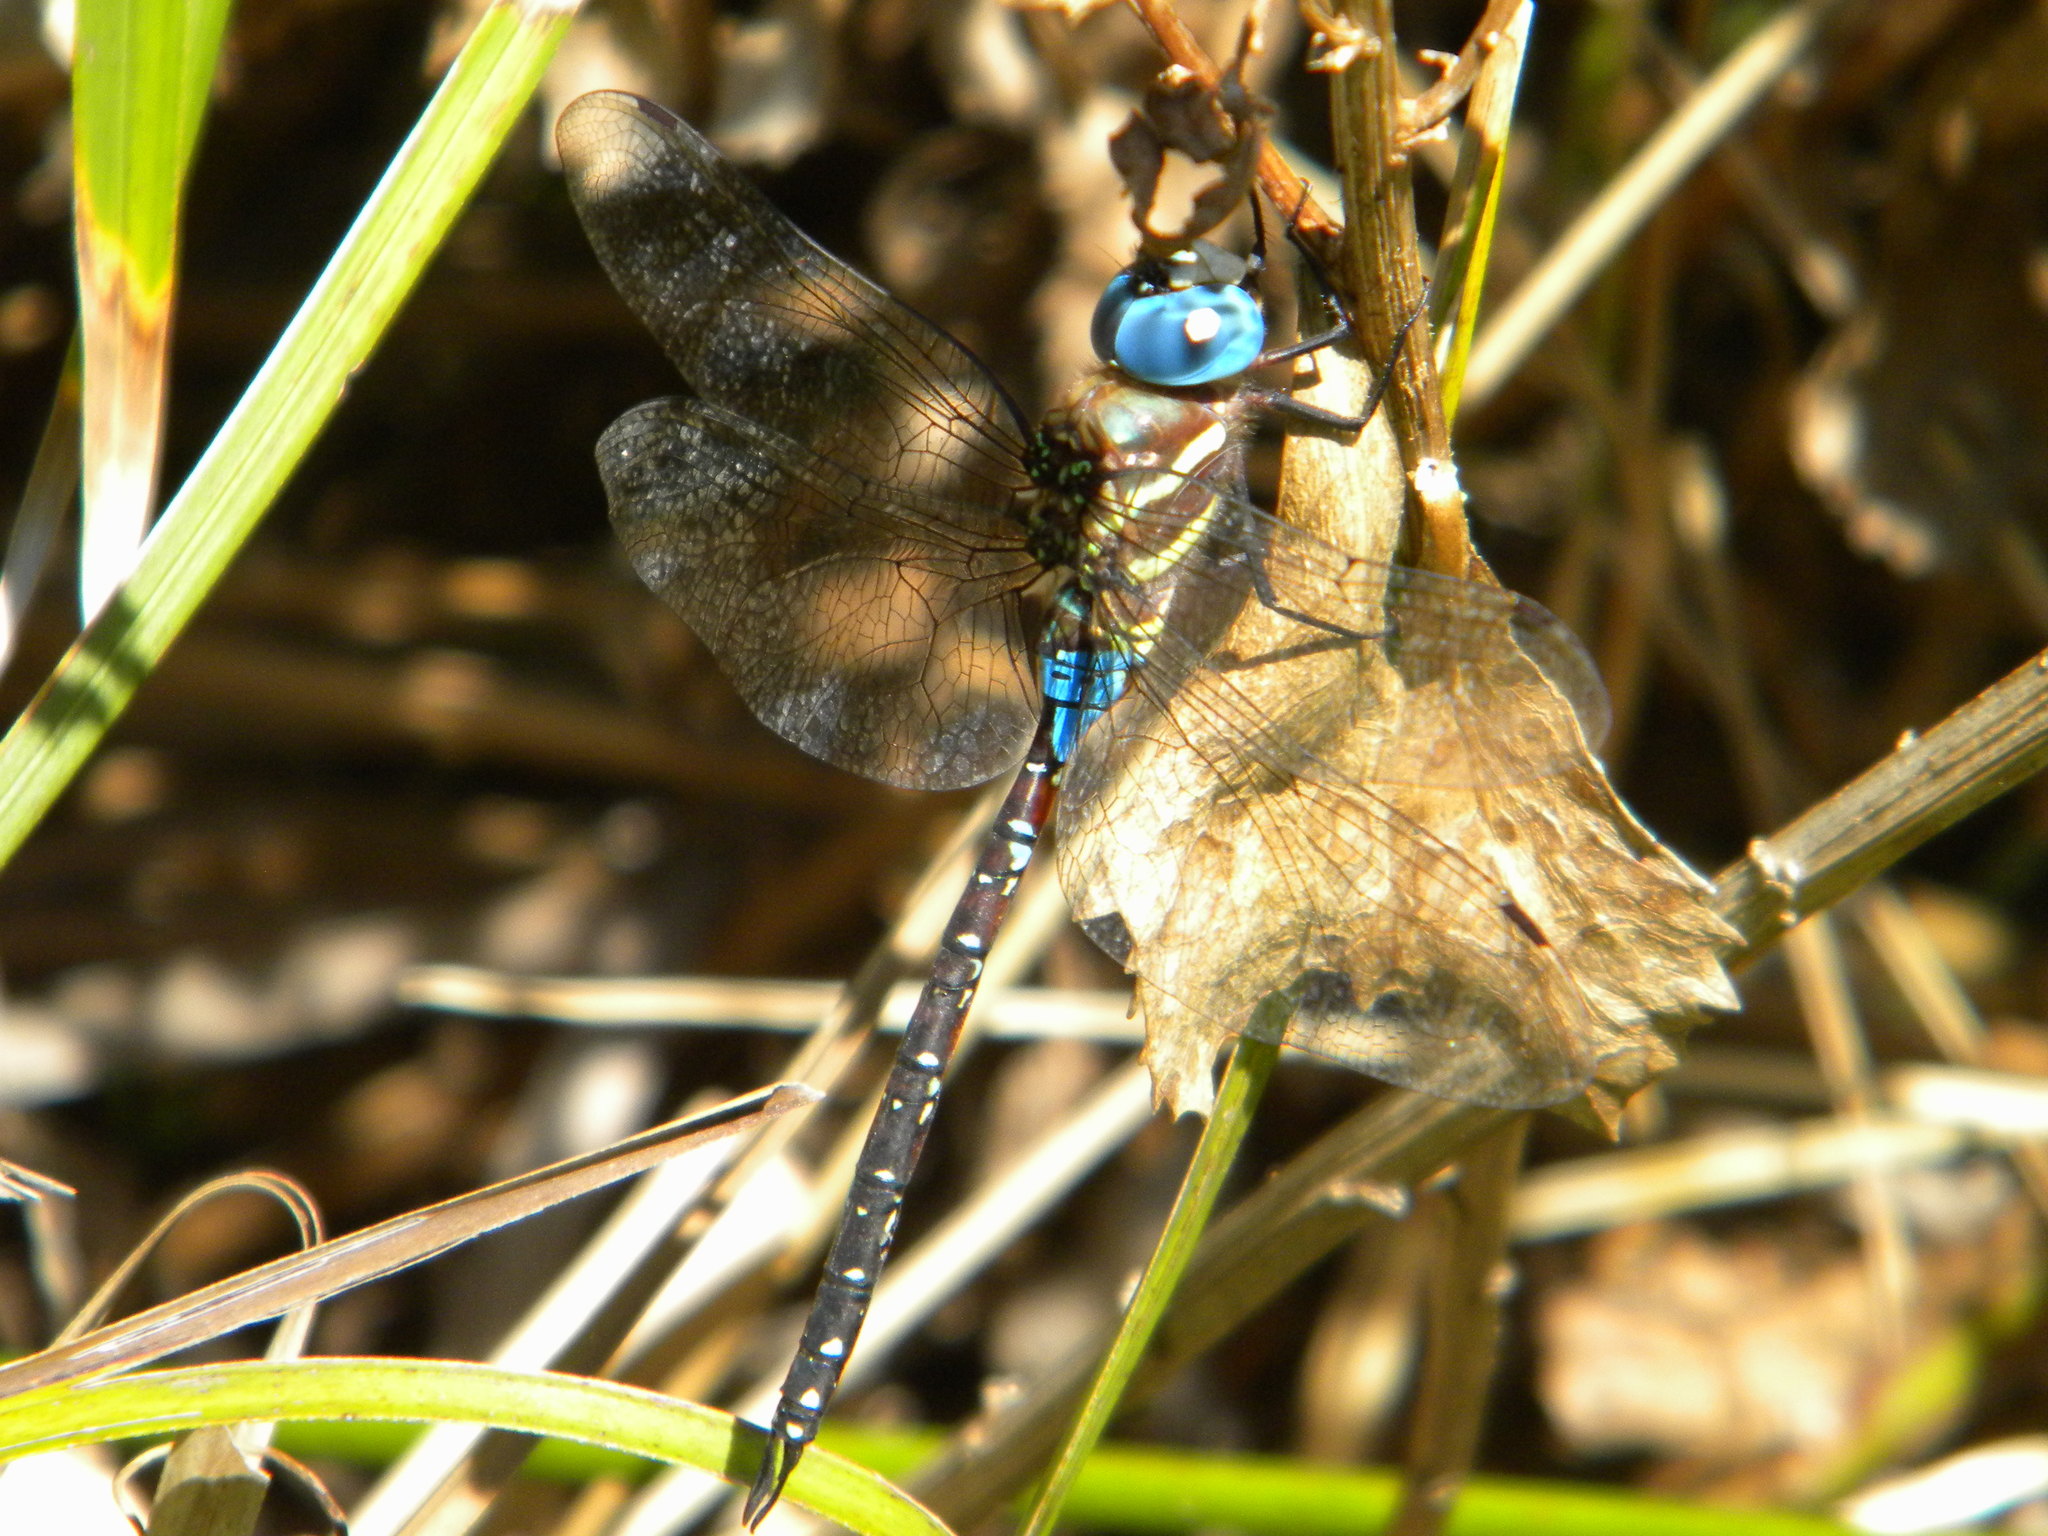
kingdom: Animalia
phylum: Arthropoda
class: Insecta
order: Odonata
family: Aeshnidae
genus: Anaciaeschna
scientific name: Anaciaeschna triangulifera
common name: Evening hawker
